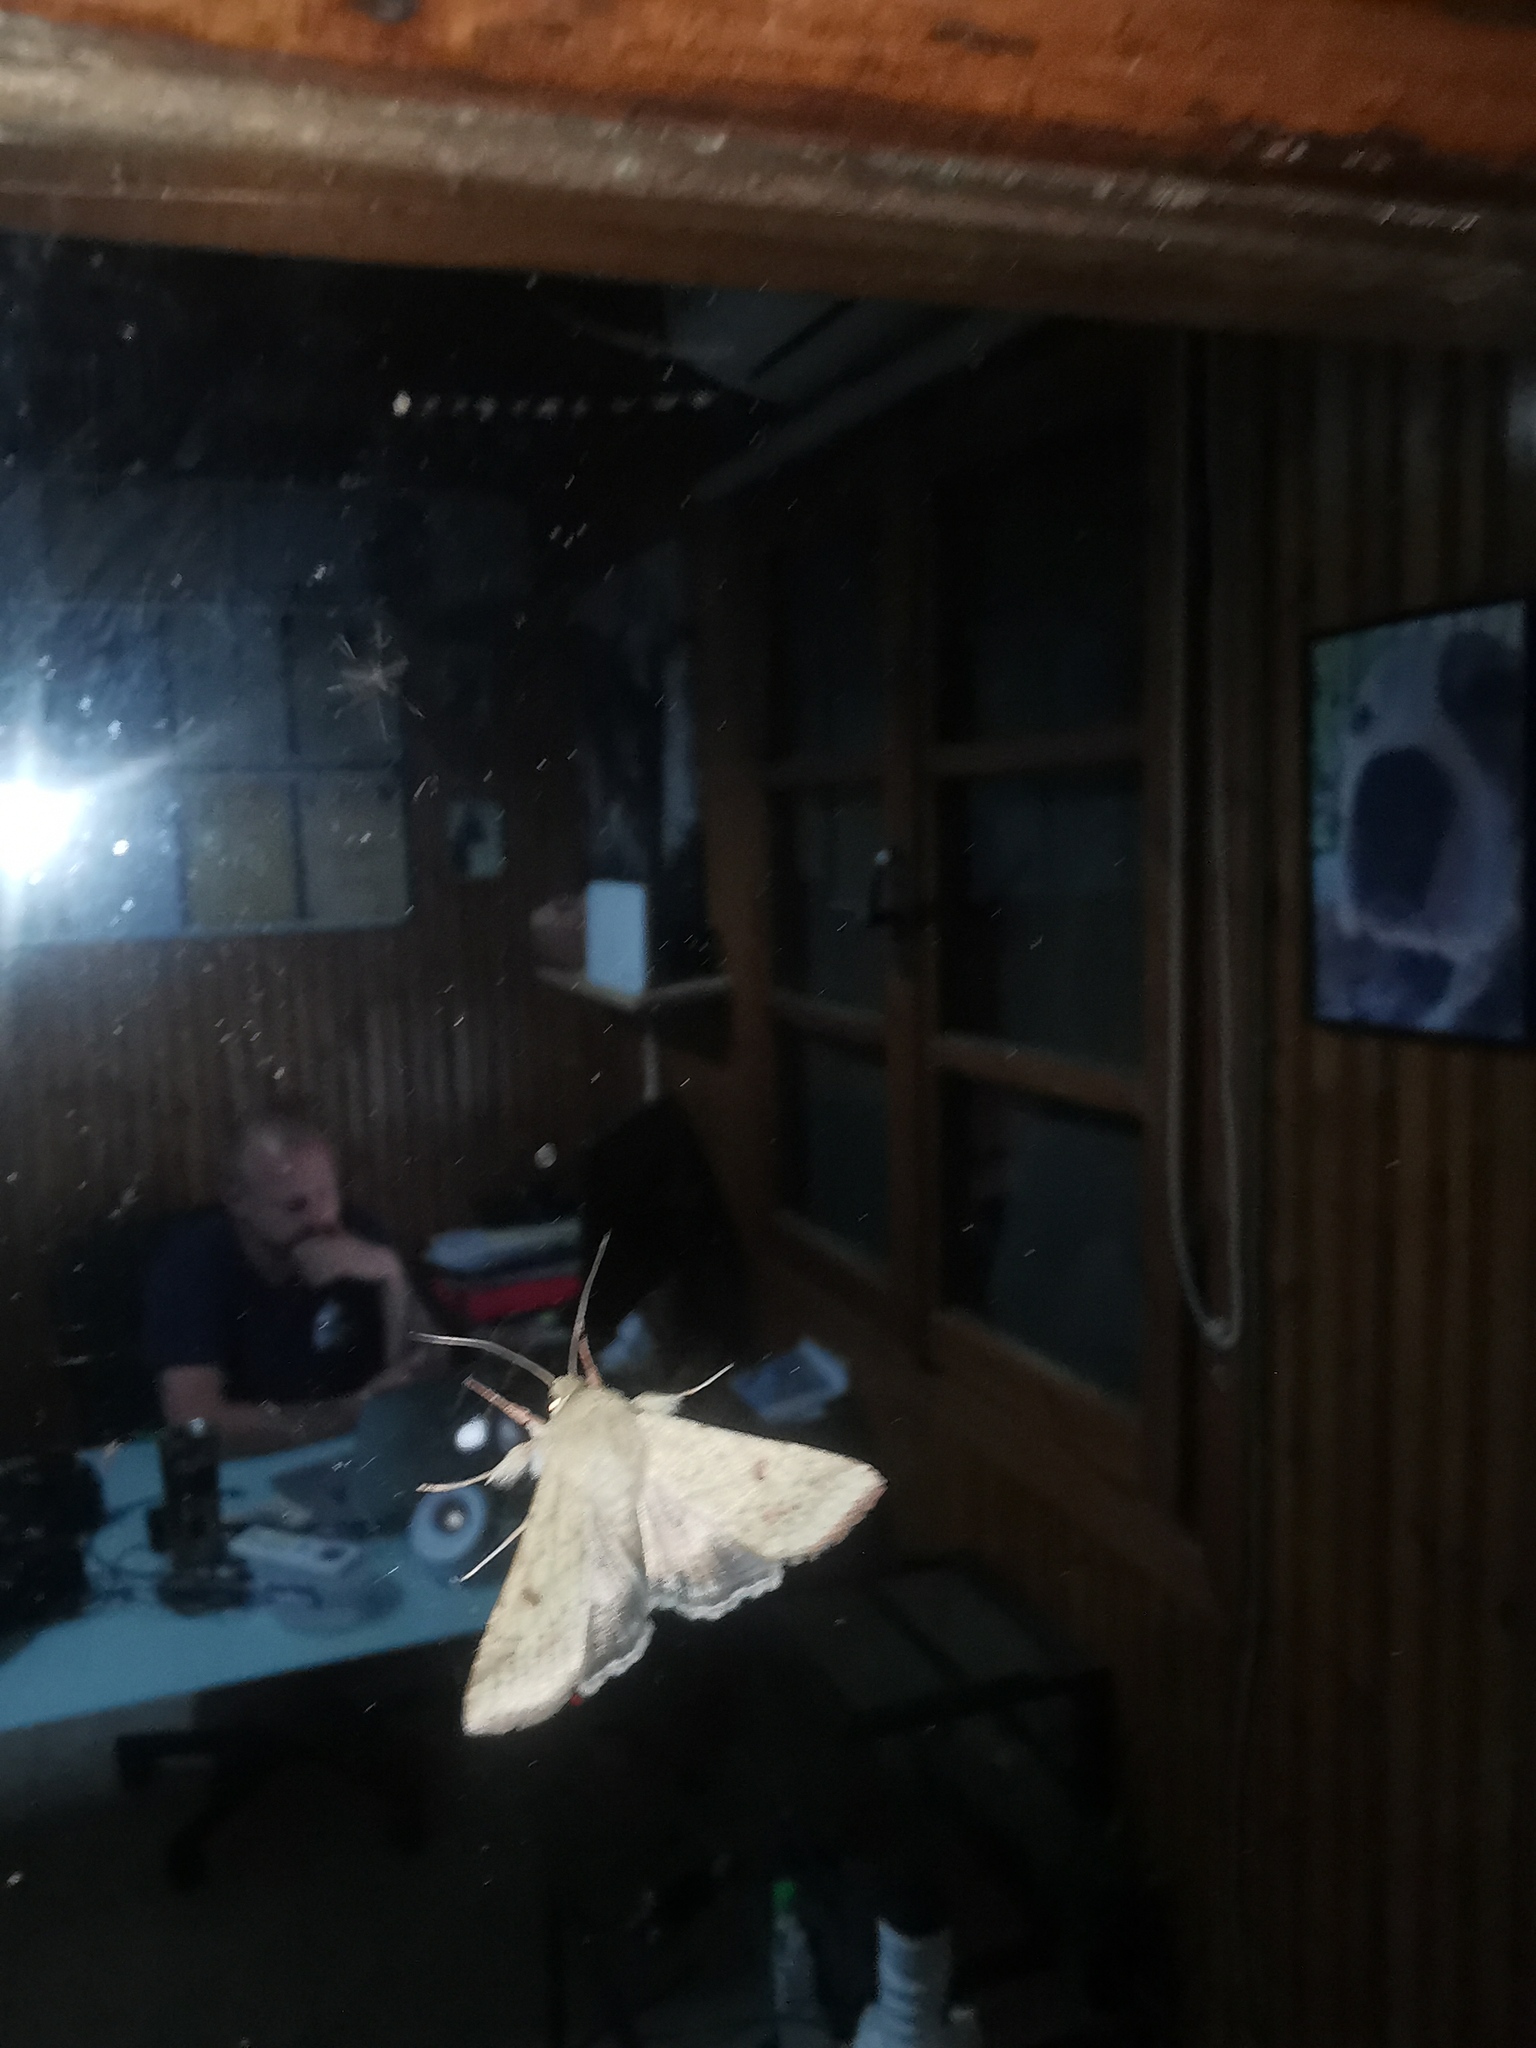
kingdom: Animalia
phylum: Arthropoda
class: Insecta
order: Lepidoptera
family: Noctuidae
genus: Helicoverpa
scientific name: Helicoverpa armigera
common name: Cotton bollworm
